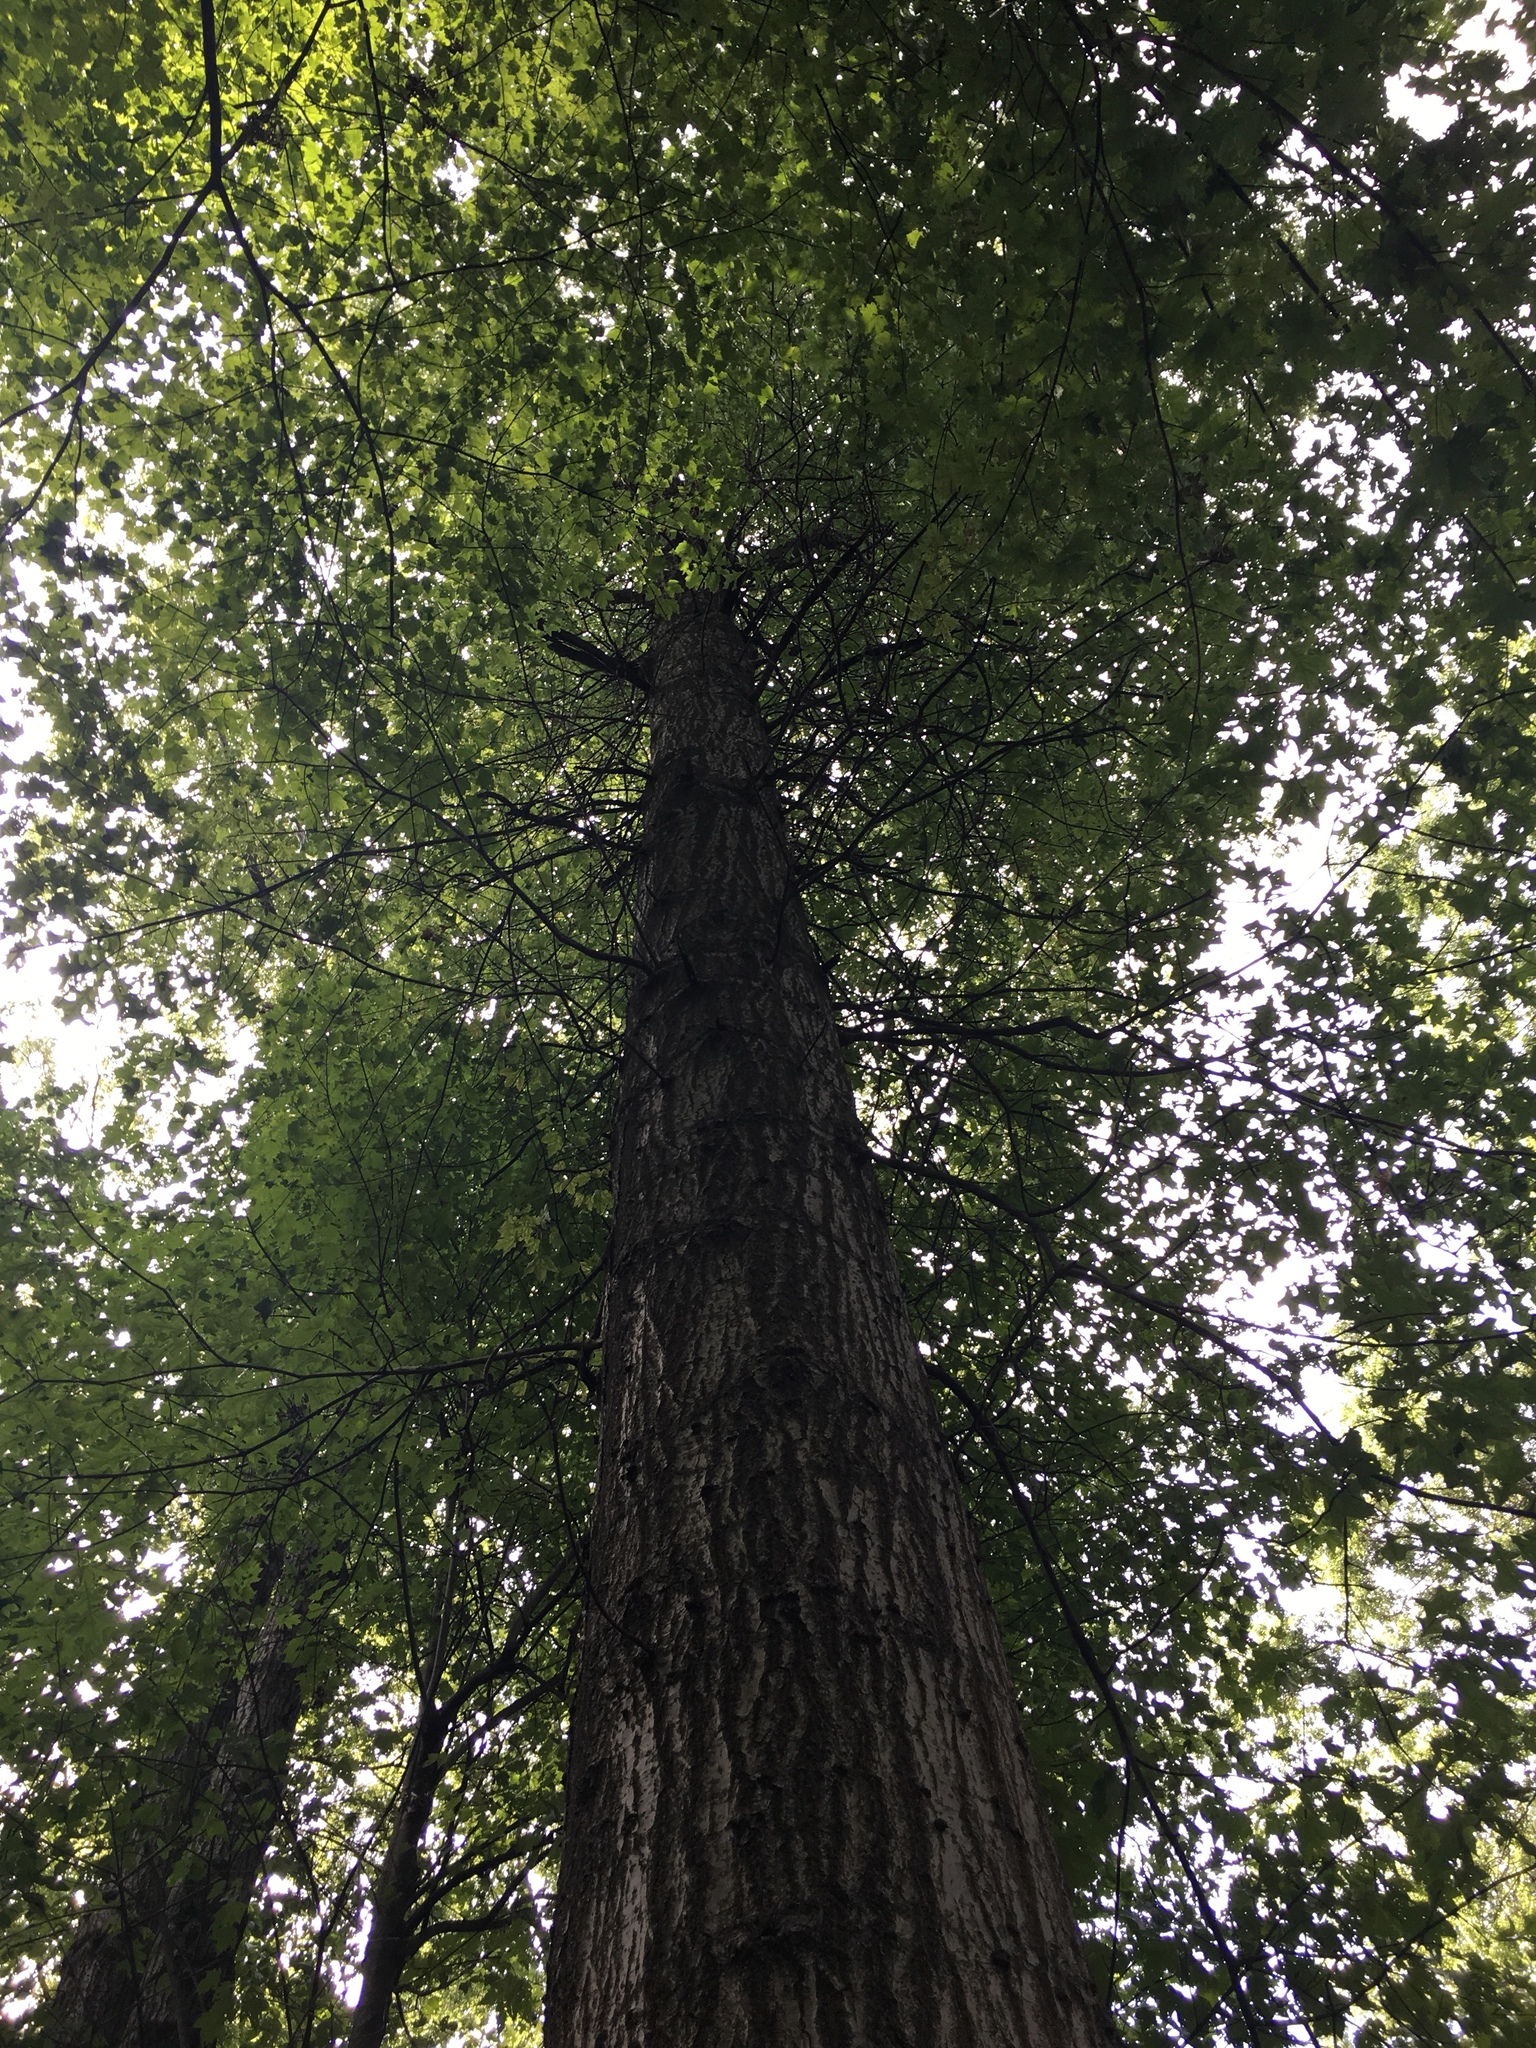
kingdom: Plantae
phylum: Tracheophyta
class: Magnoliopsida
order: Fagales
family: Fagaceae
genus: Quercus
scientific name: Quercus palustris
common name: Pin oak
